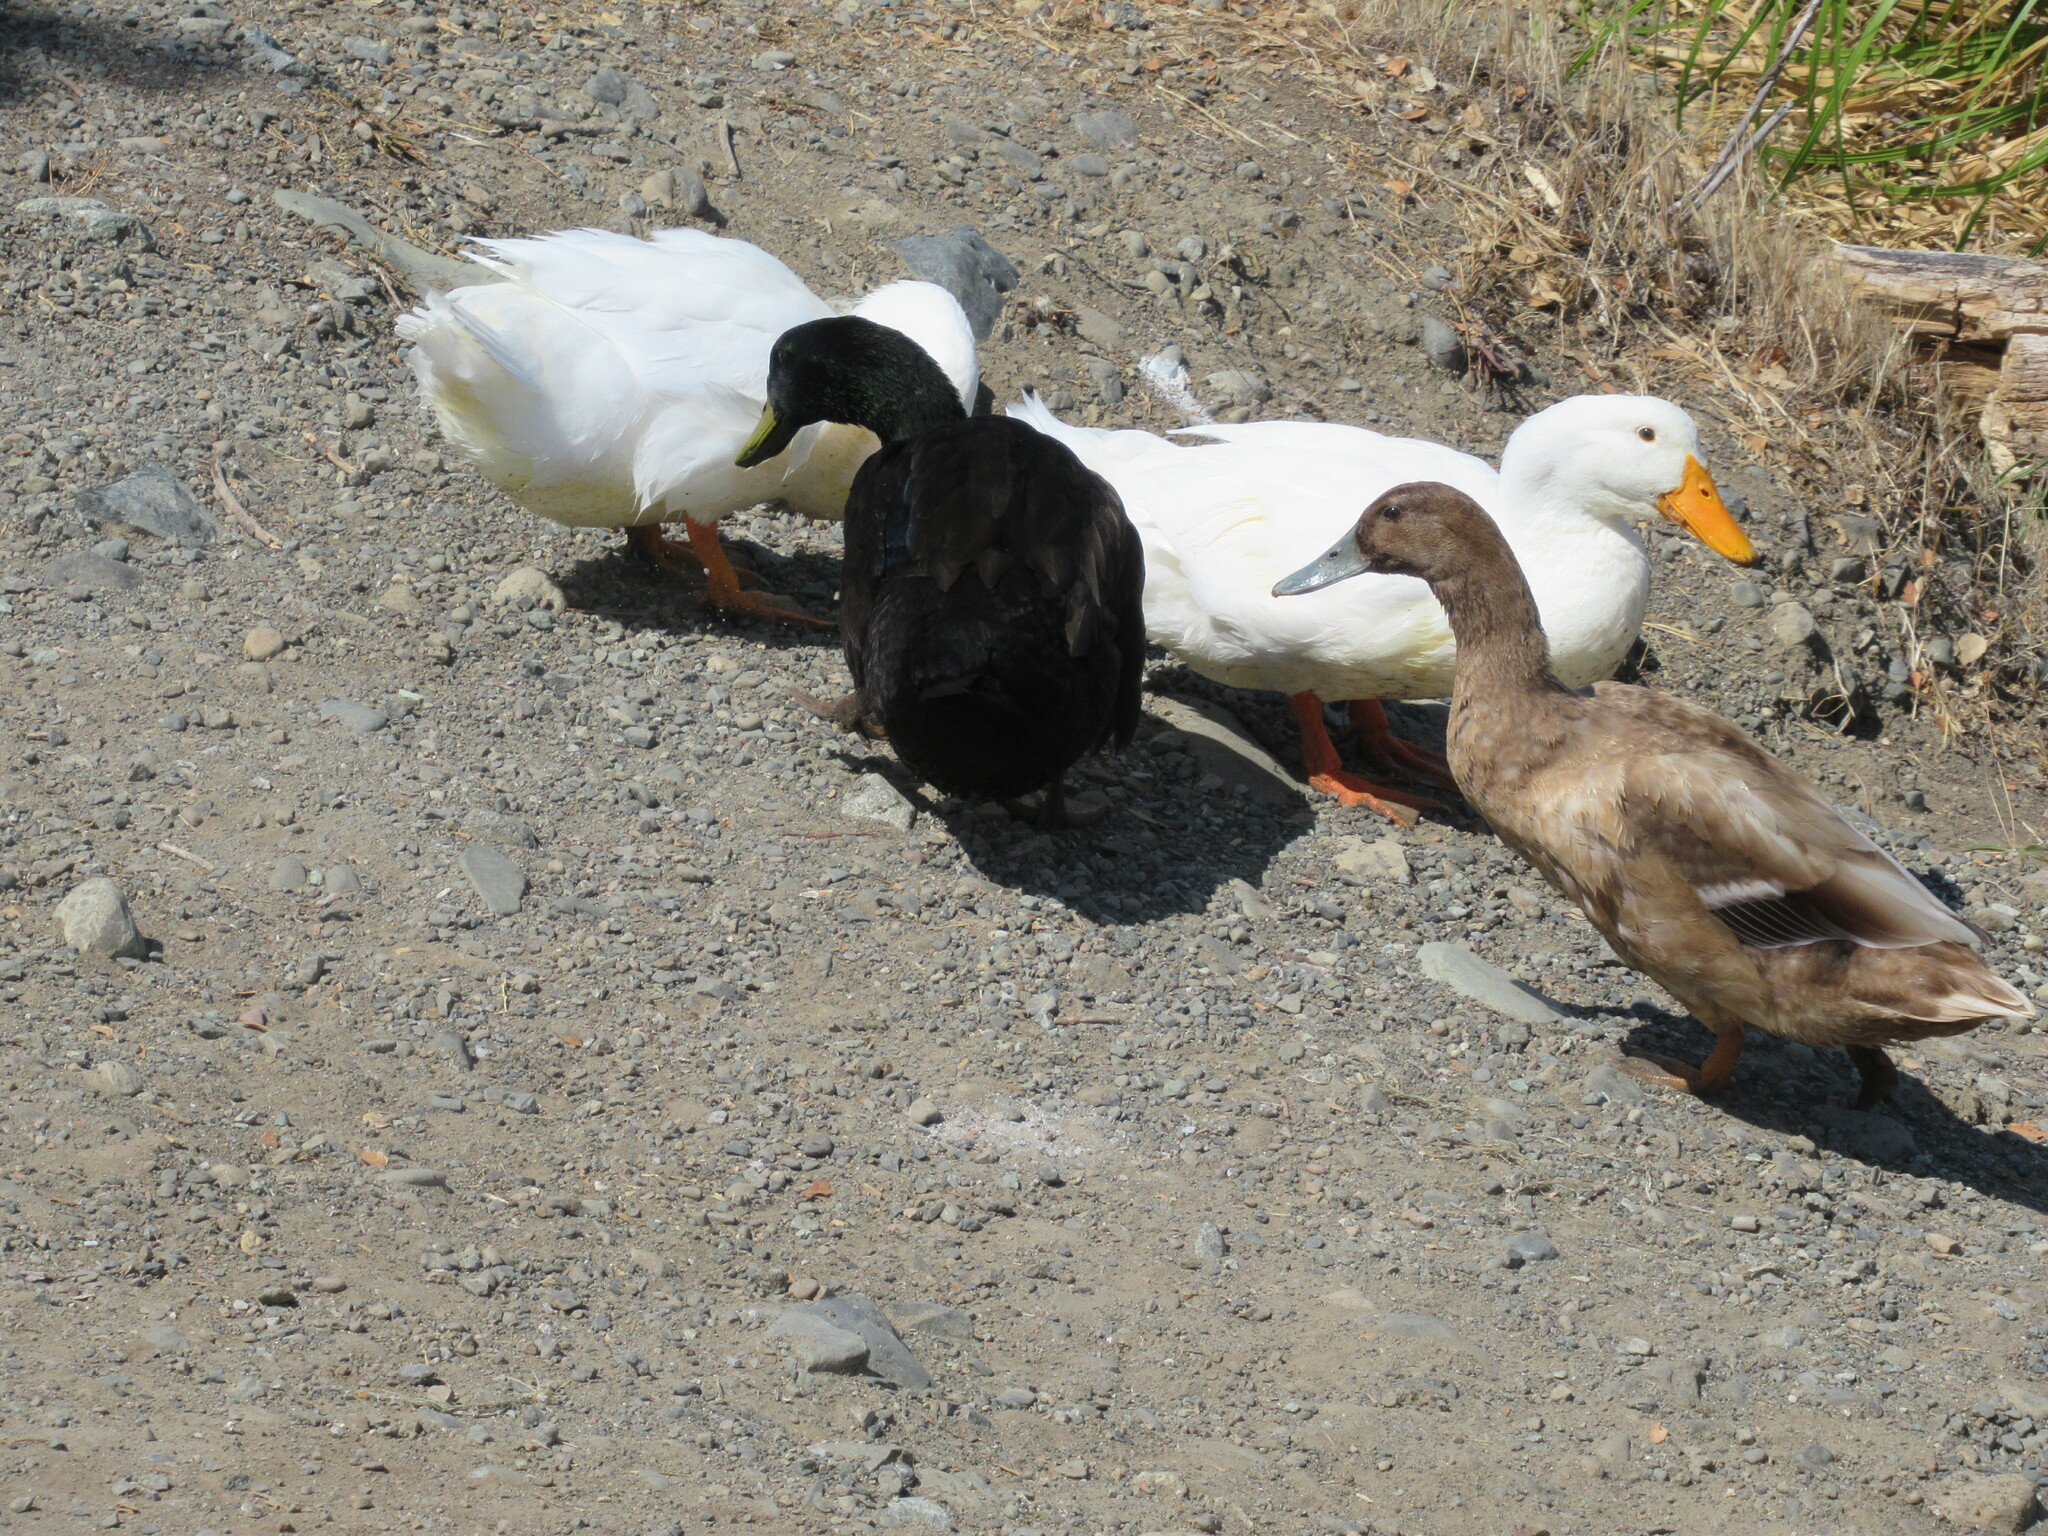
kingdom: Animalia
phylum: Chordata
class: Aves
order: Anseriformes
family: Anatidae
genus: Anas
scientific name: Anas platyrhynchos
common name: Mallard
